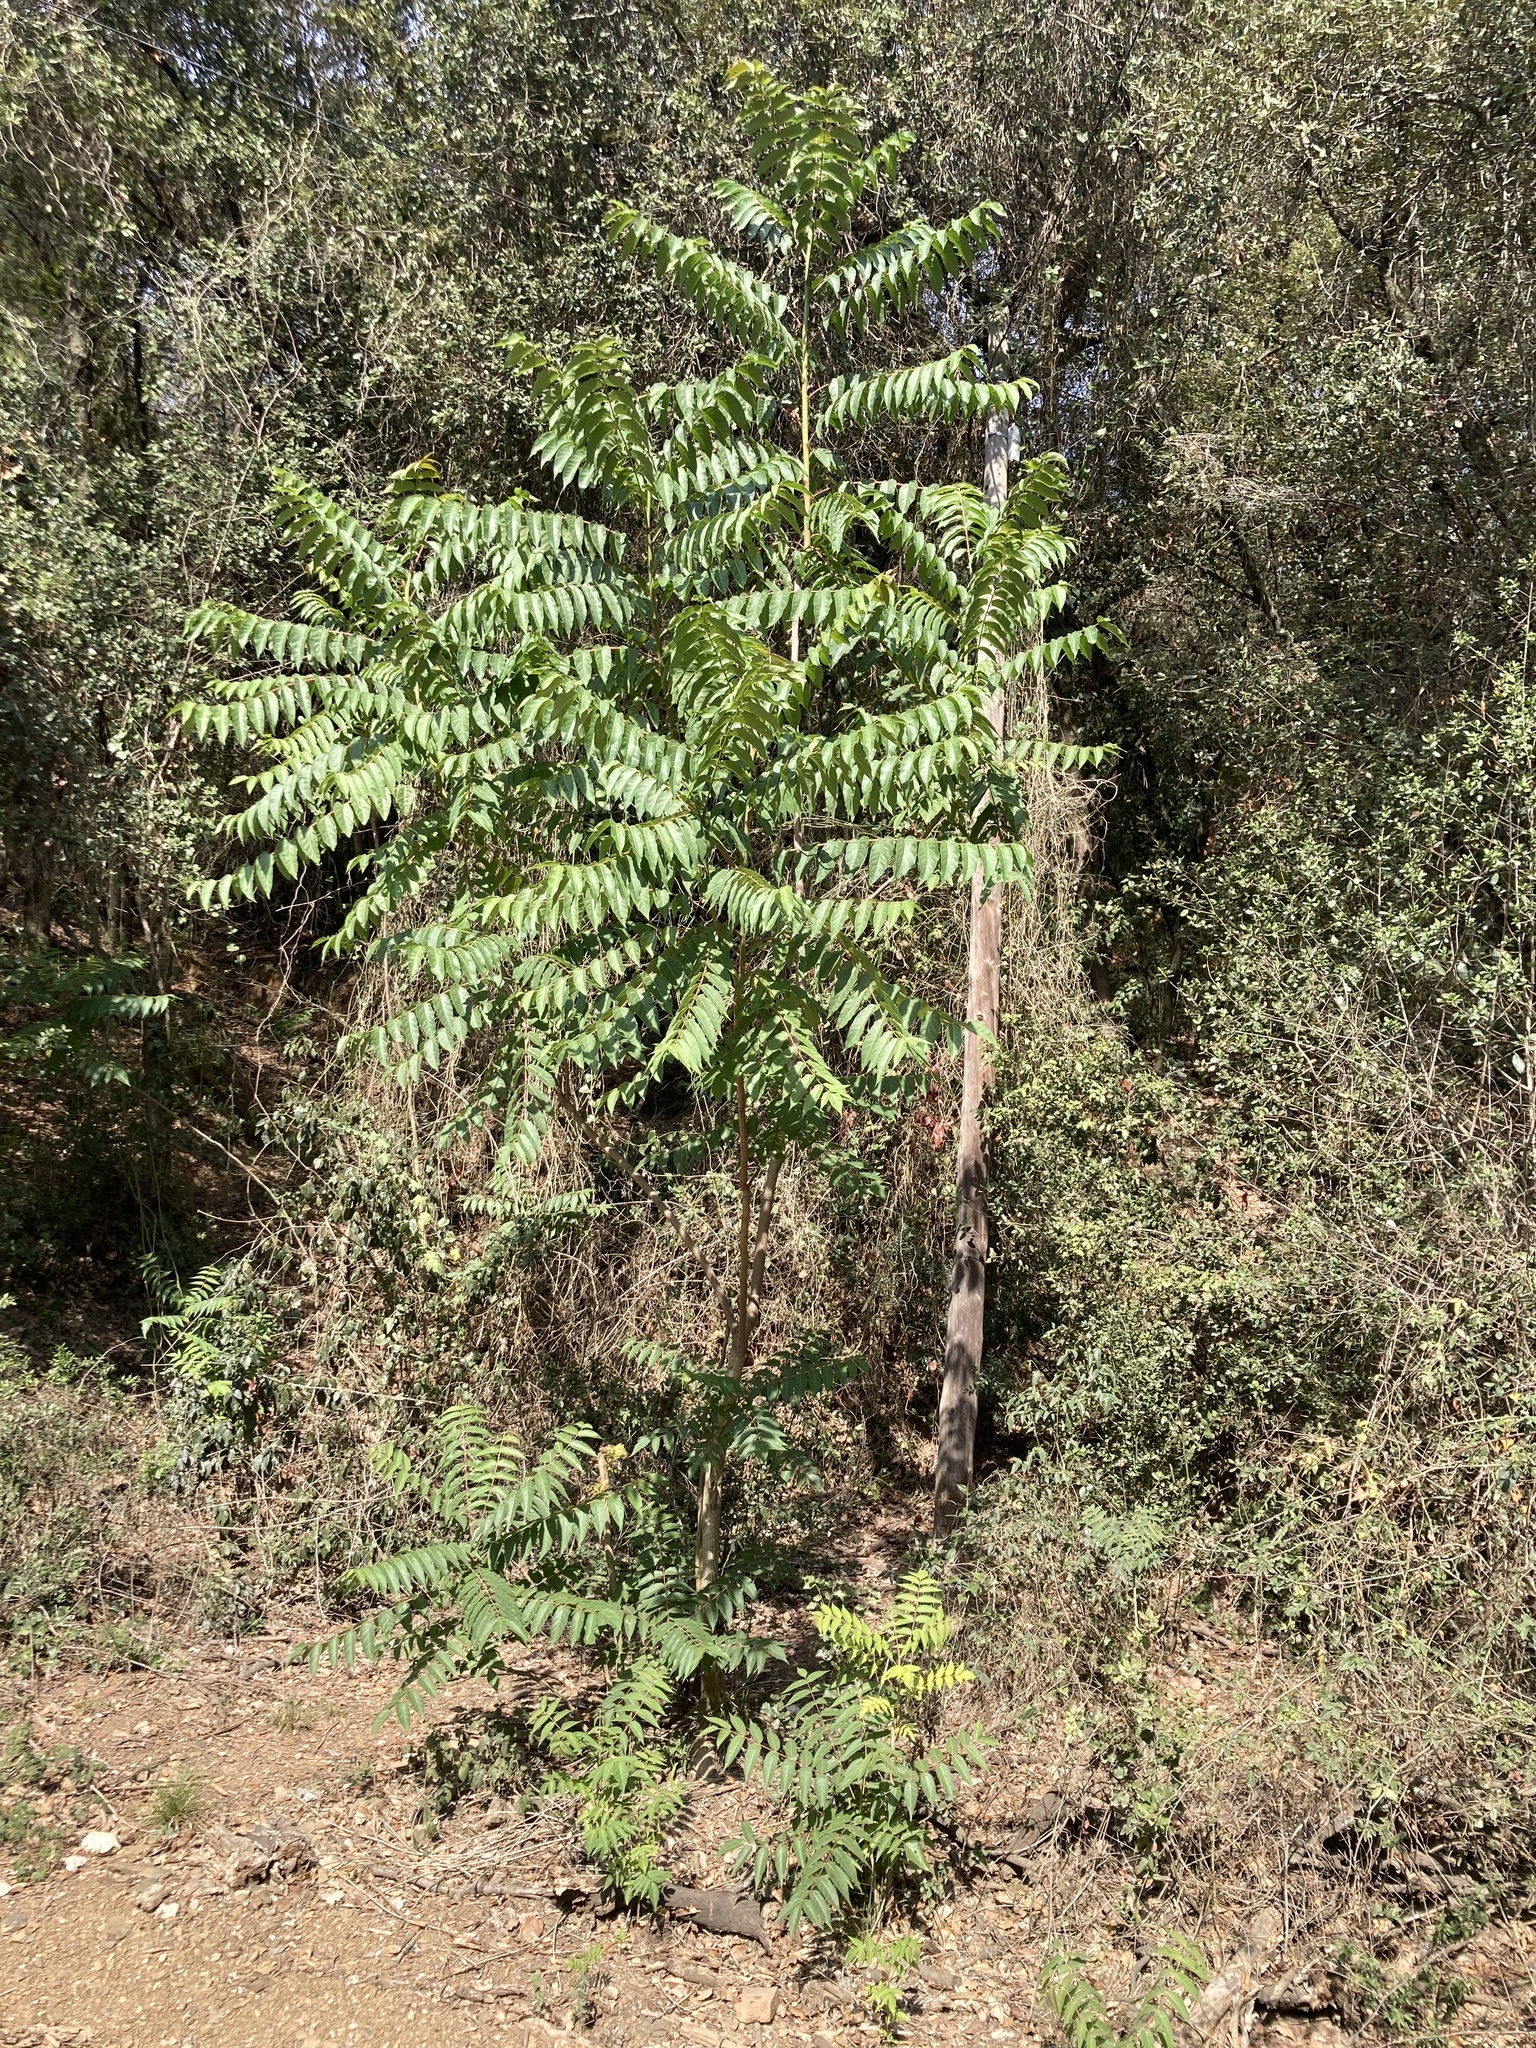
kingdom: Plantae
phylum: Tracheophyta
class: Magnoliopsida
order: Sapindales
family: Simaroubaceae
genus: Ailanthus
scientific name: Ailanthus altissima
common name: Tree-of-heaven
